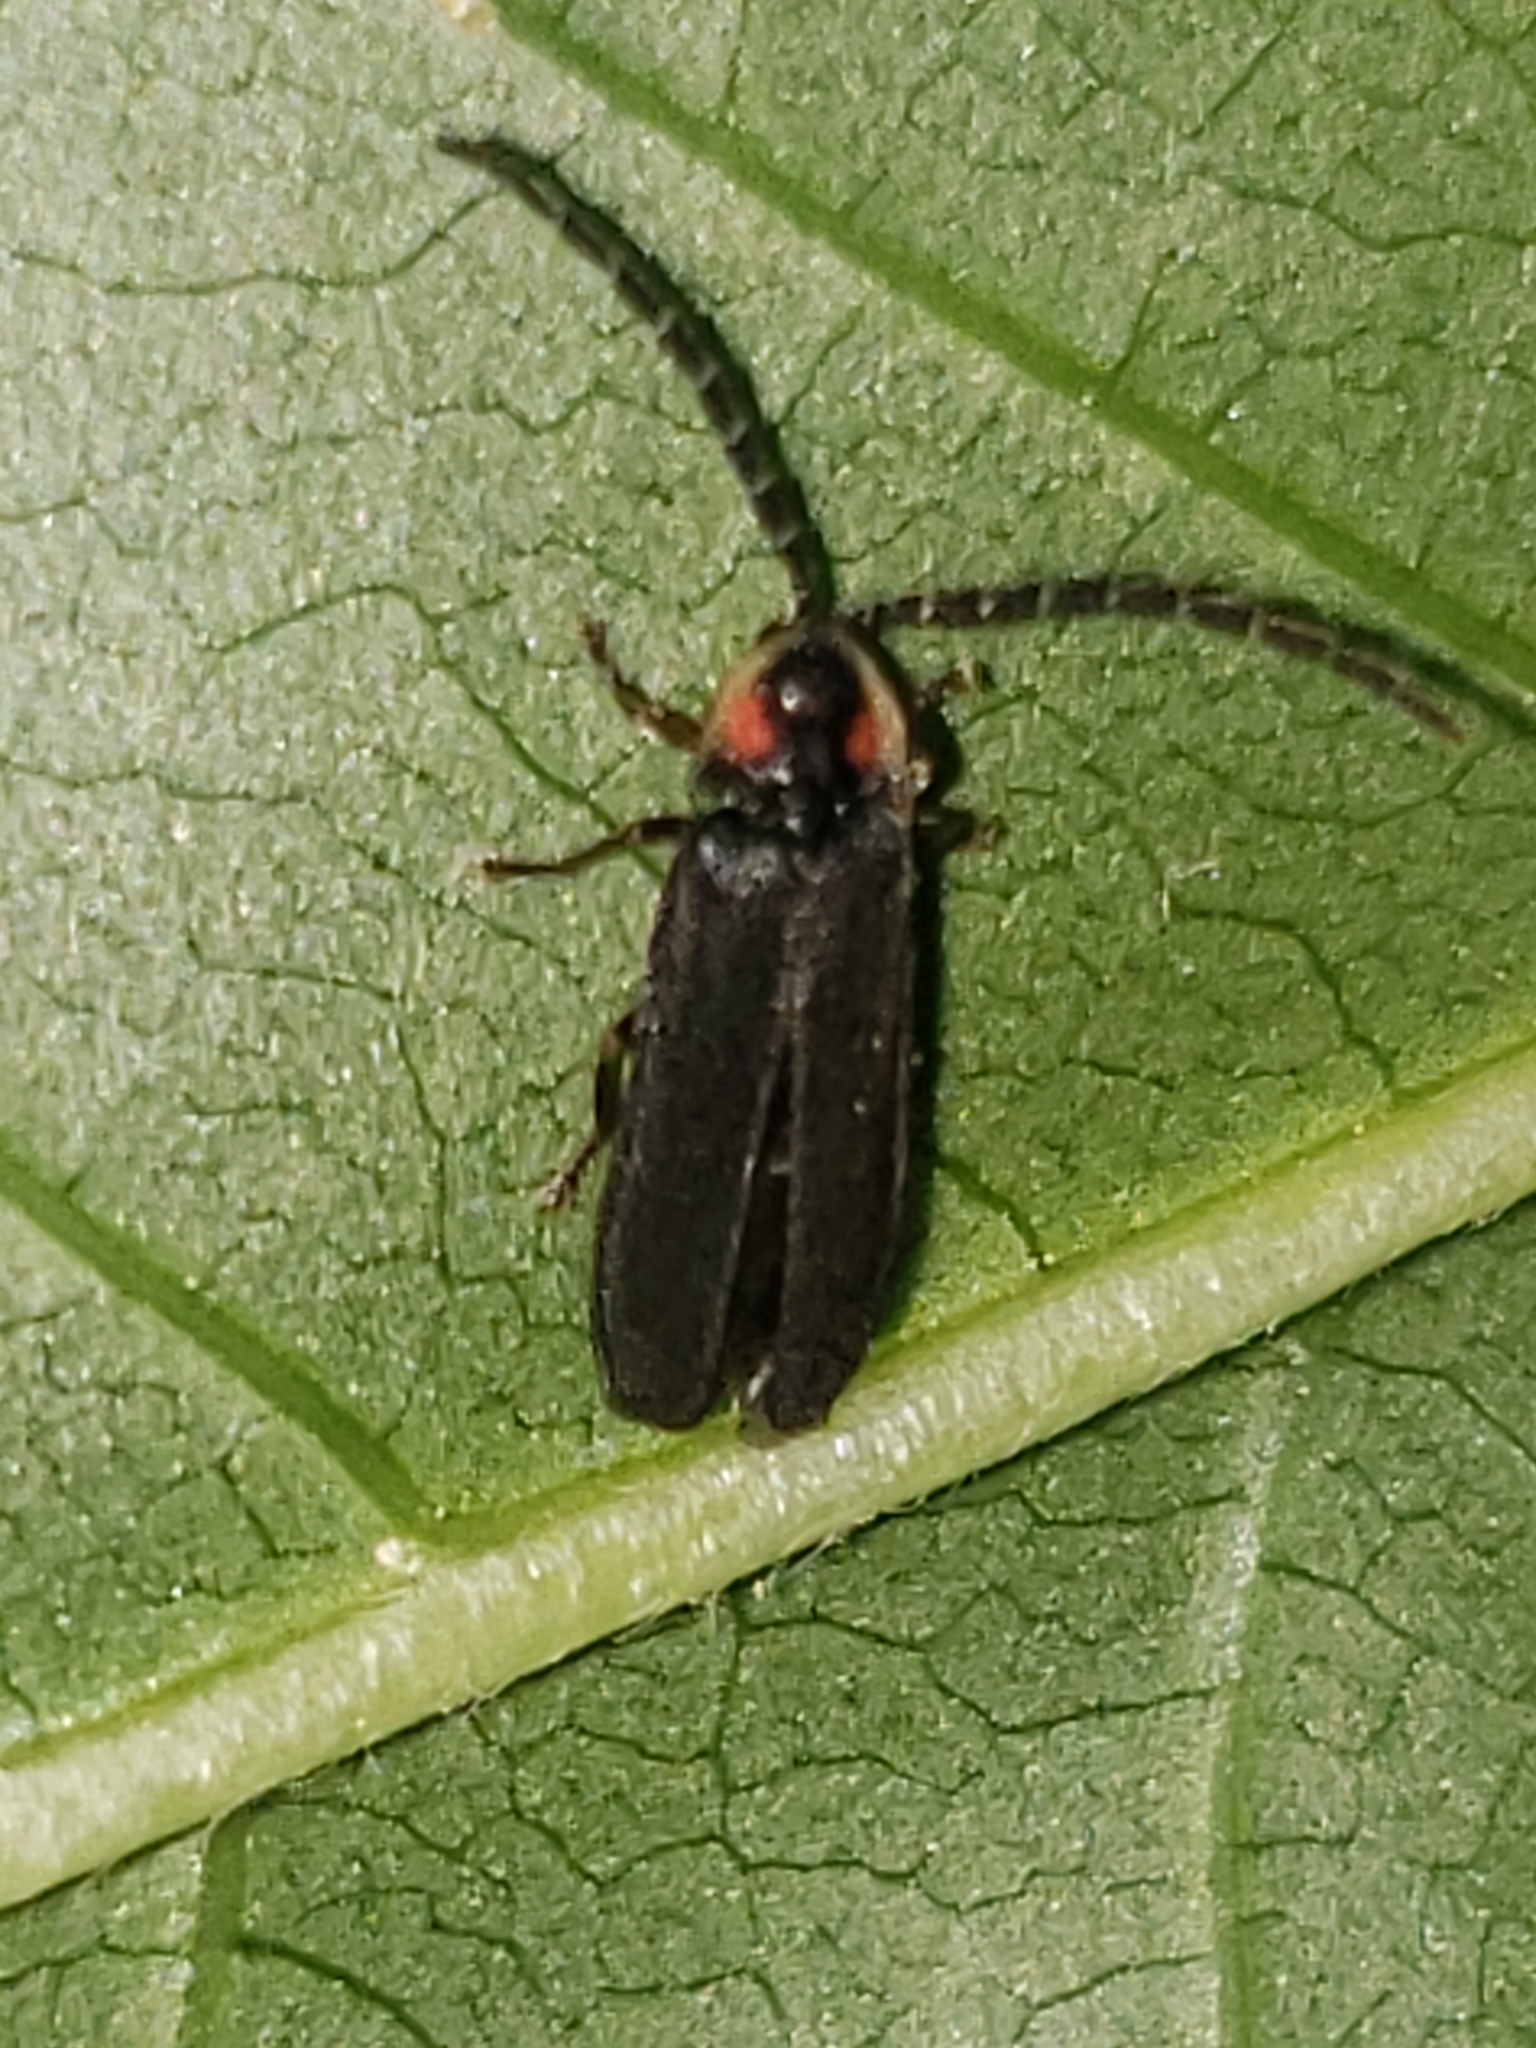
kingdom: Animalia
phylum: Arthropoda
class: Insecta
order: Coleoptera
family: Lampyridae
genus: Lucidota
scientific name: Lucidota punctata
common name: Dotted firefly
